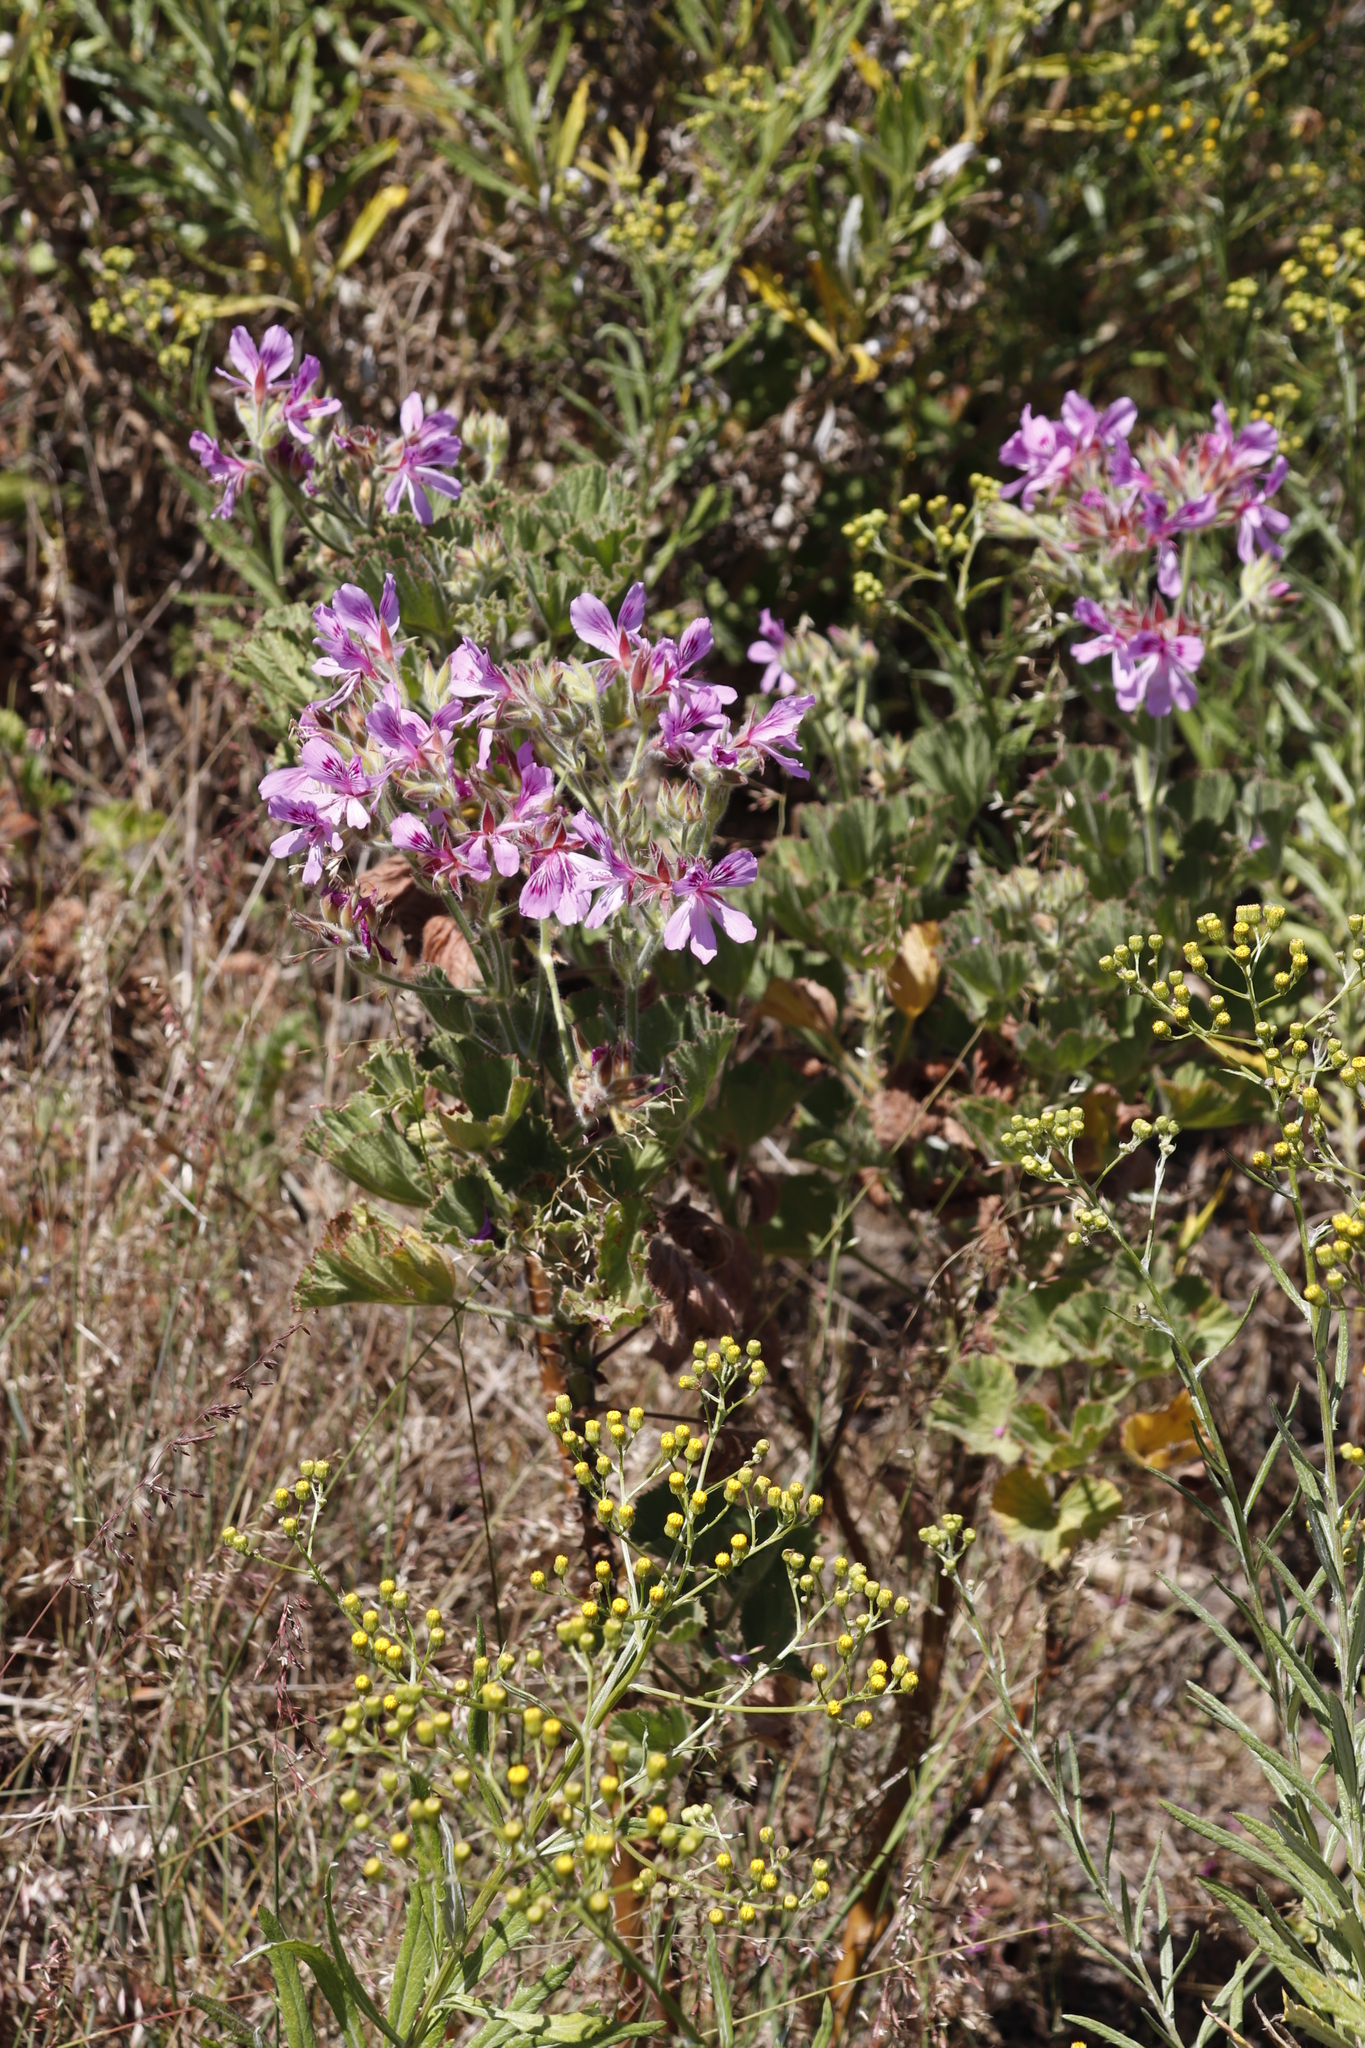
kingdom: Plantae
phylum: Tracheophyta
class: Magnoliopsida
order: Geraniales
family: Geraniaceae
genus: Pelargonium
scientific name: Pelargonium cucullatum
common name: Tree pelargonium
